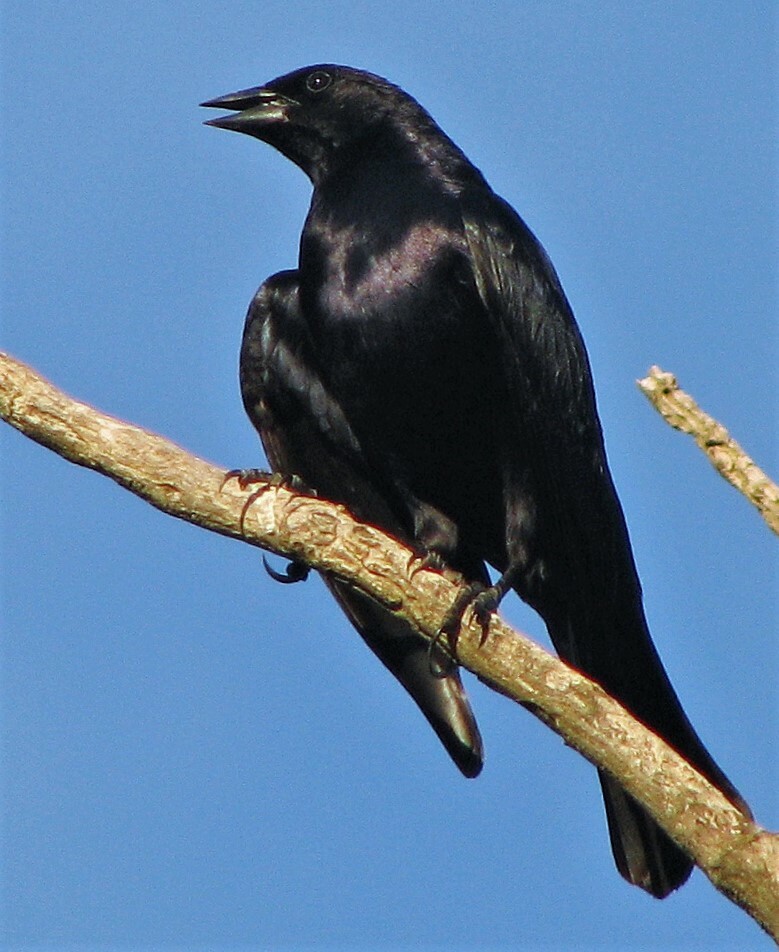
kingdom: Animalia
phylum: Chordata
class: Aves
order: Passeriformes
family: Icteridae
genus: Molothrus
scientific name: Molothrus rufoaxillaris
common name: Screaming cowbird
